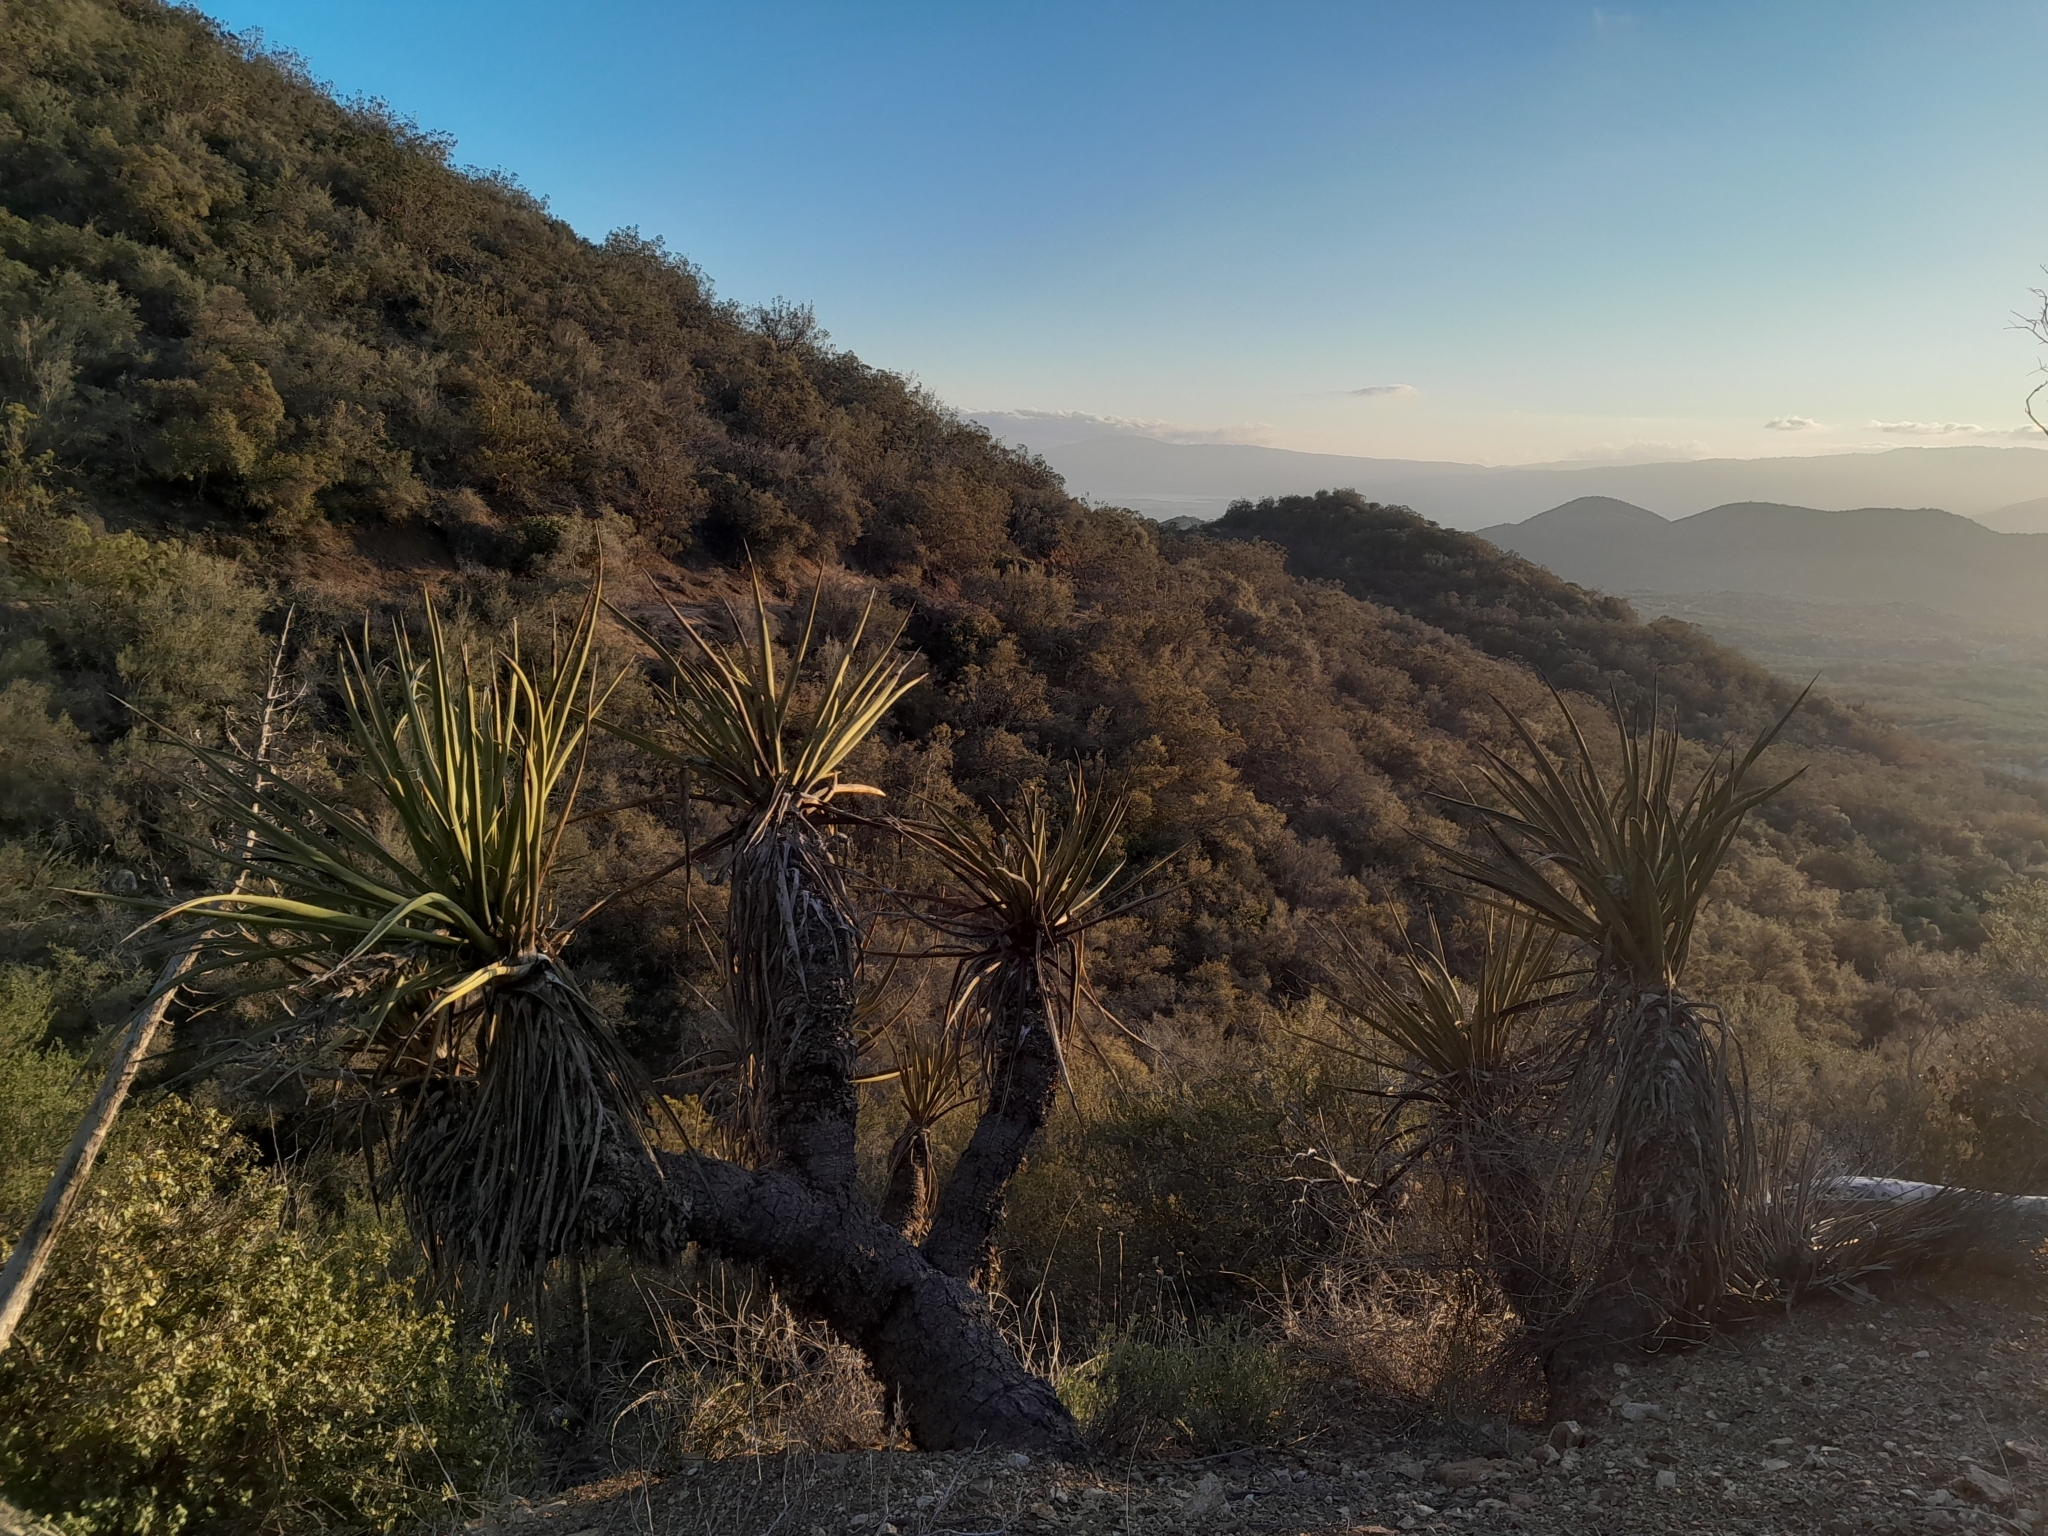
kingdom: Plantae
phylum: Tracheophyta
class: Liliopsida
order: Asparagales
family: Asparagaceae
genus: Yucca
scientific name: Yucca schidigera
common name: Mojave yucca
